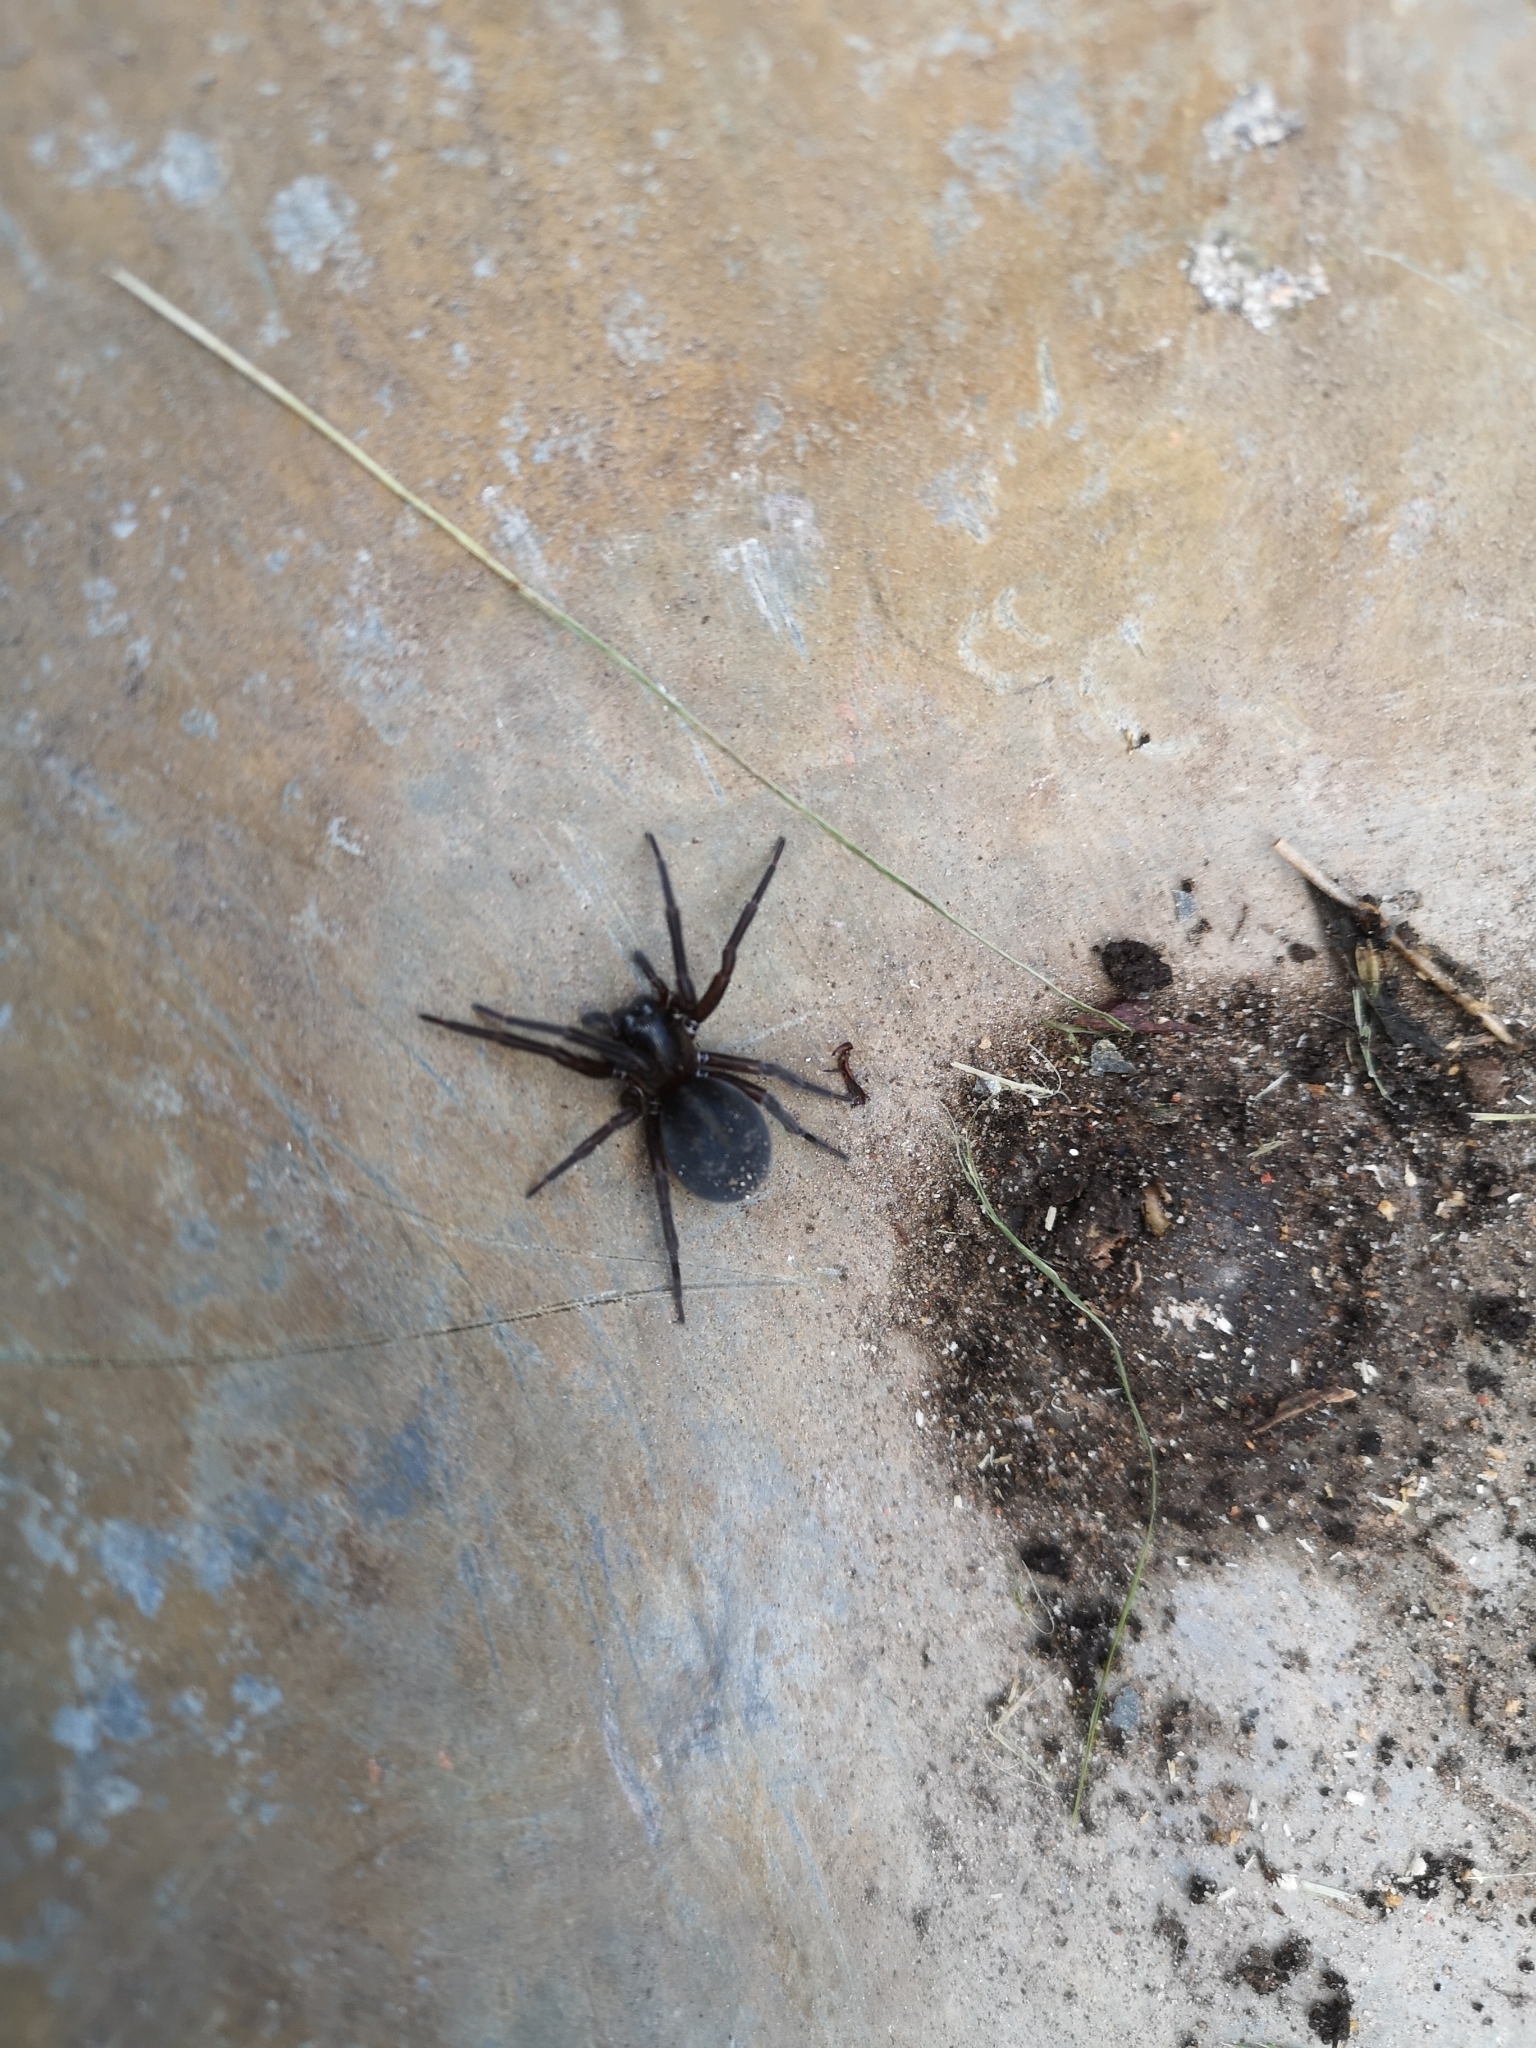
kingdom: Animalia
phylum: Arthropoda
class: Arachnida
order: Araneae
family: Amaurobiidae
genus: Amaurobius
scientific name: Amaurobius ferox
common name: Black laceweaver
